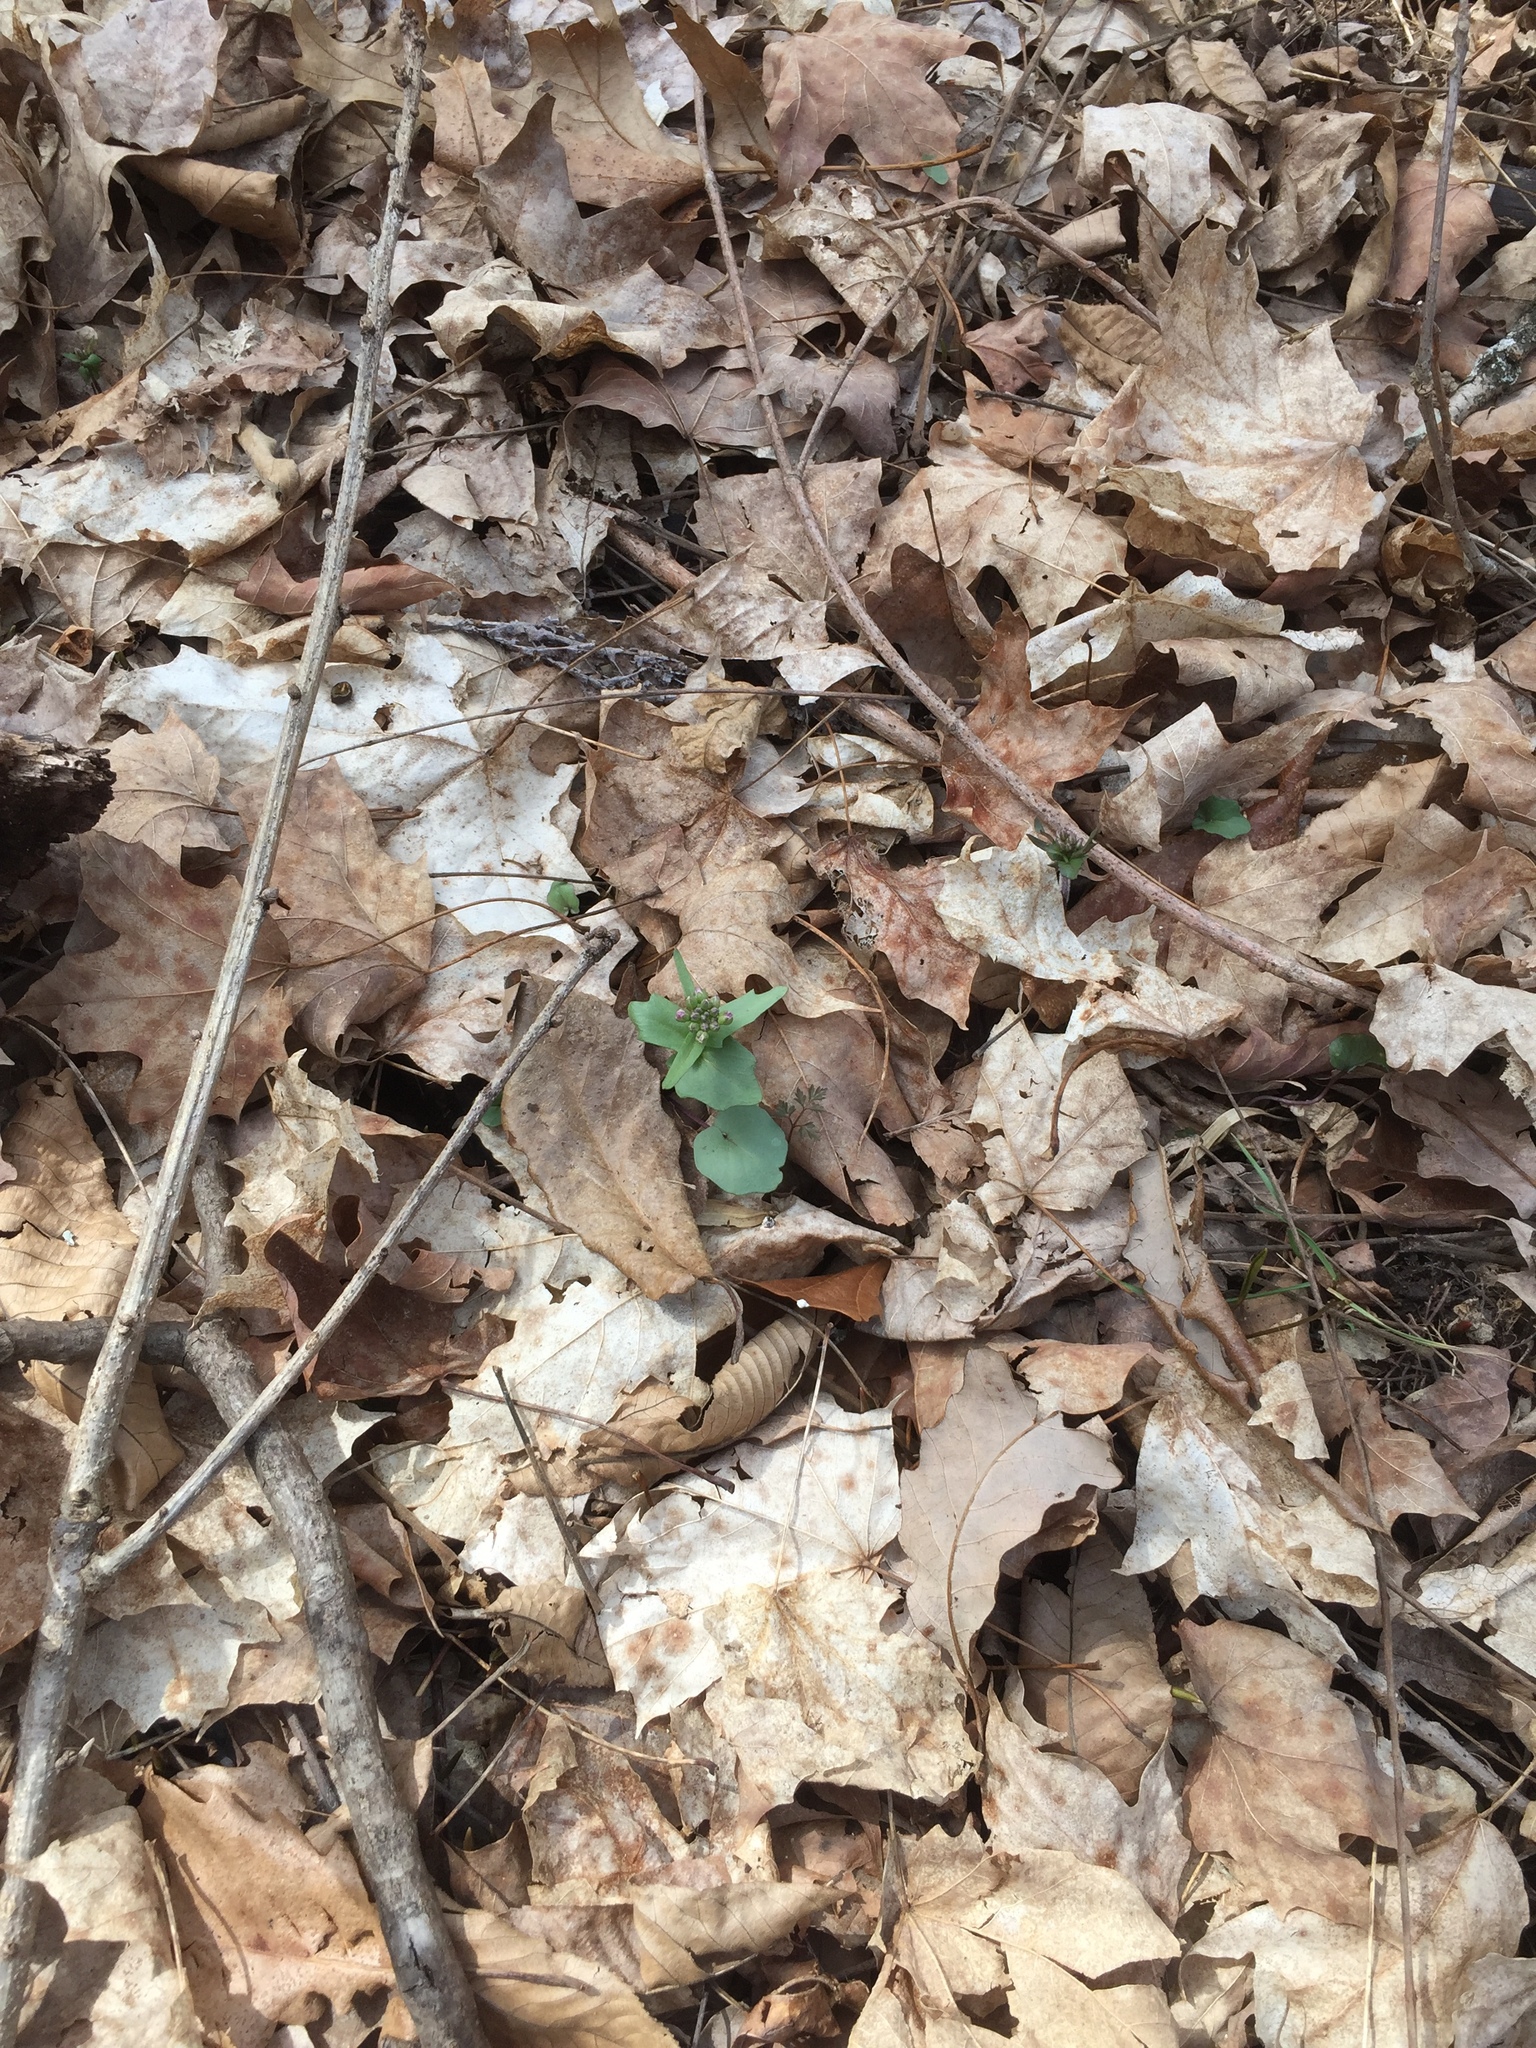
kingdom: Plantae
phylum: Tracheophyta
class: Magnoliopsida
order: Brassicales
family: Brassicaceae
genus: Cardamine
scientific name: Cardamine douglassii
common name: Purple cress
